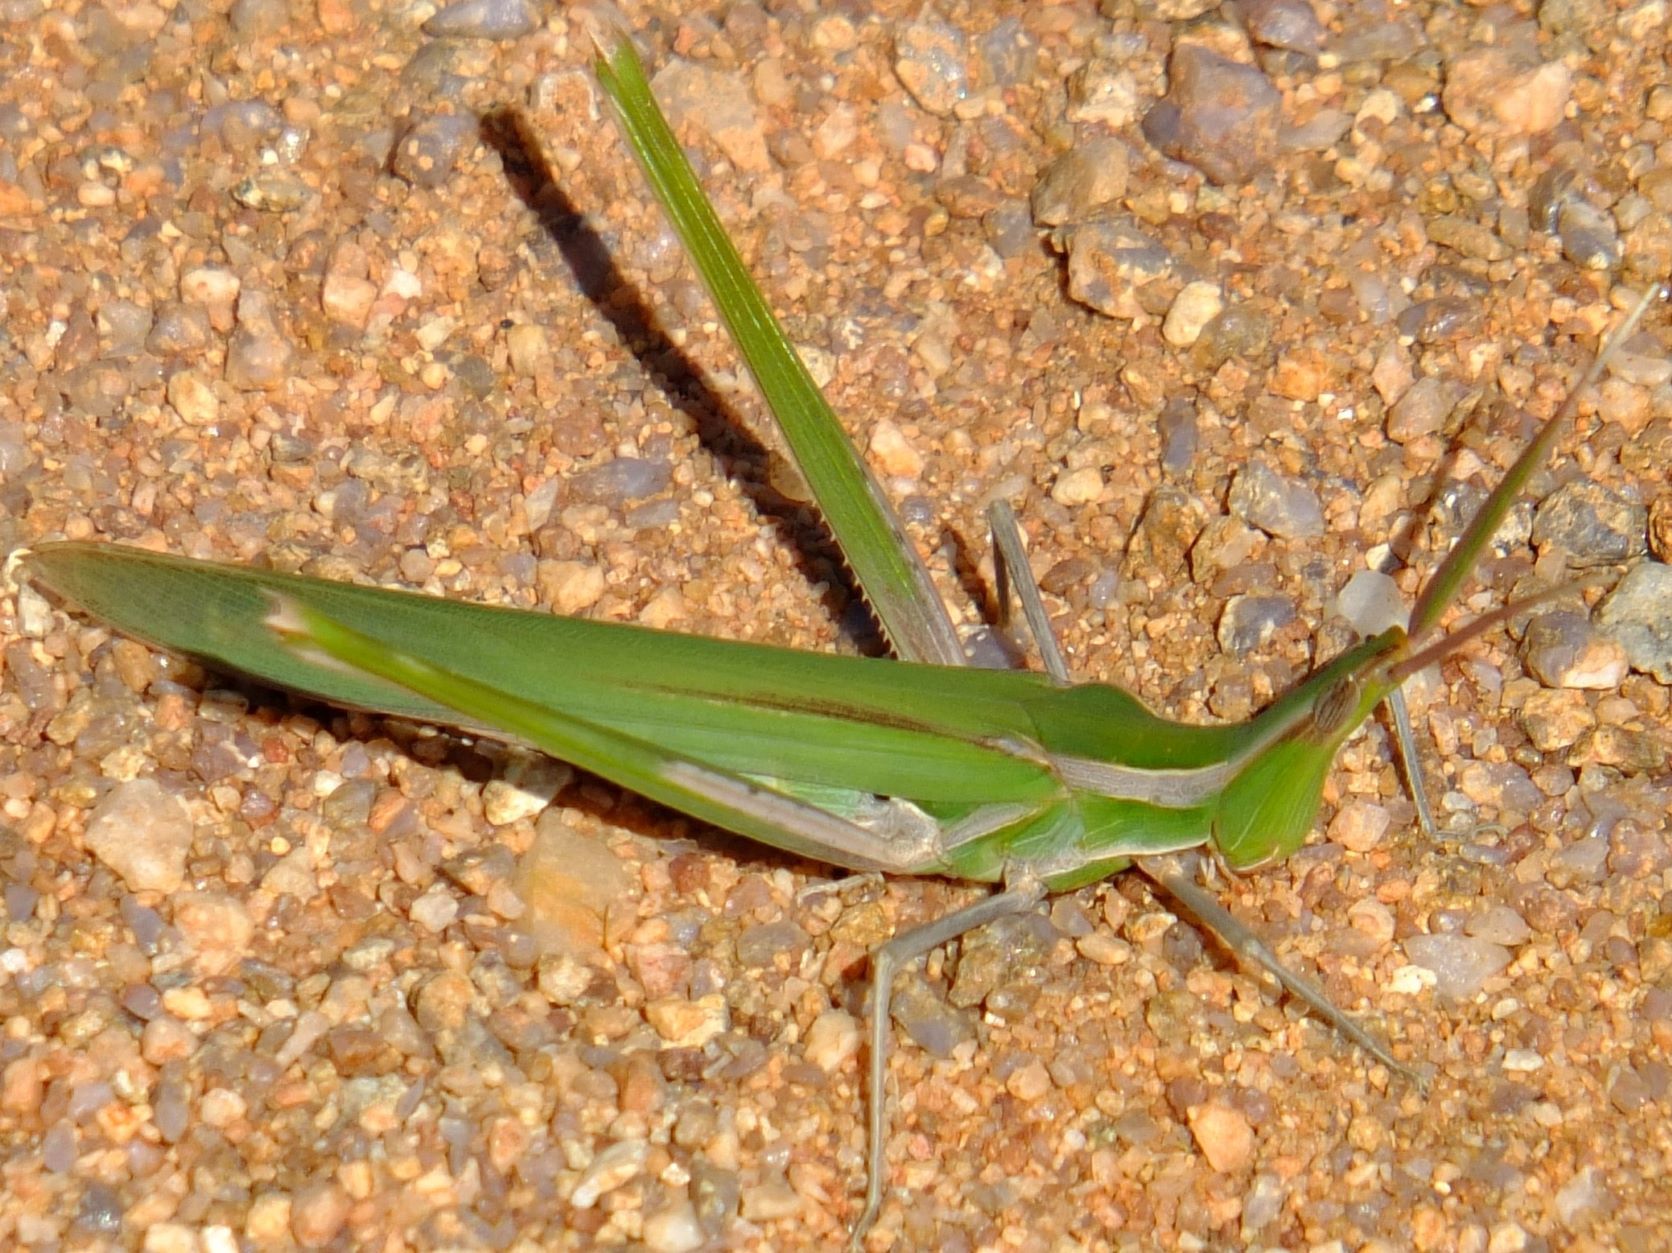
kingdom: Animalia
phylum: Arthropoda
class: Insecta
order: Orthoptera
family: Acrididae
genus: Acrida
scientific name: Acrida acuminata
